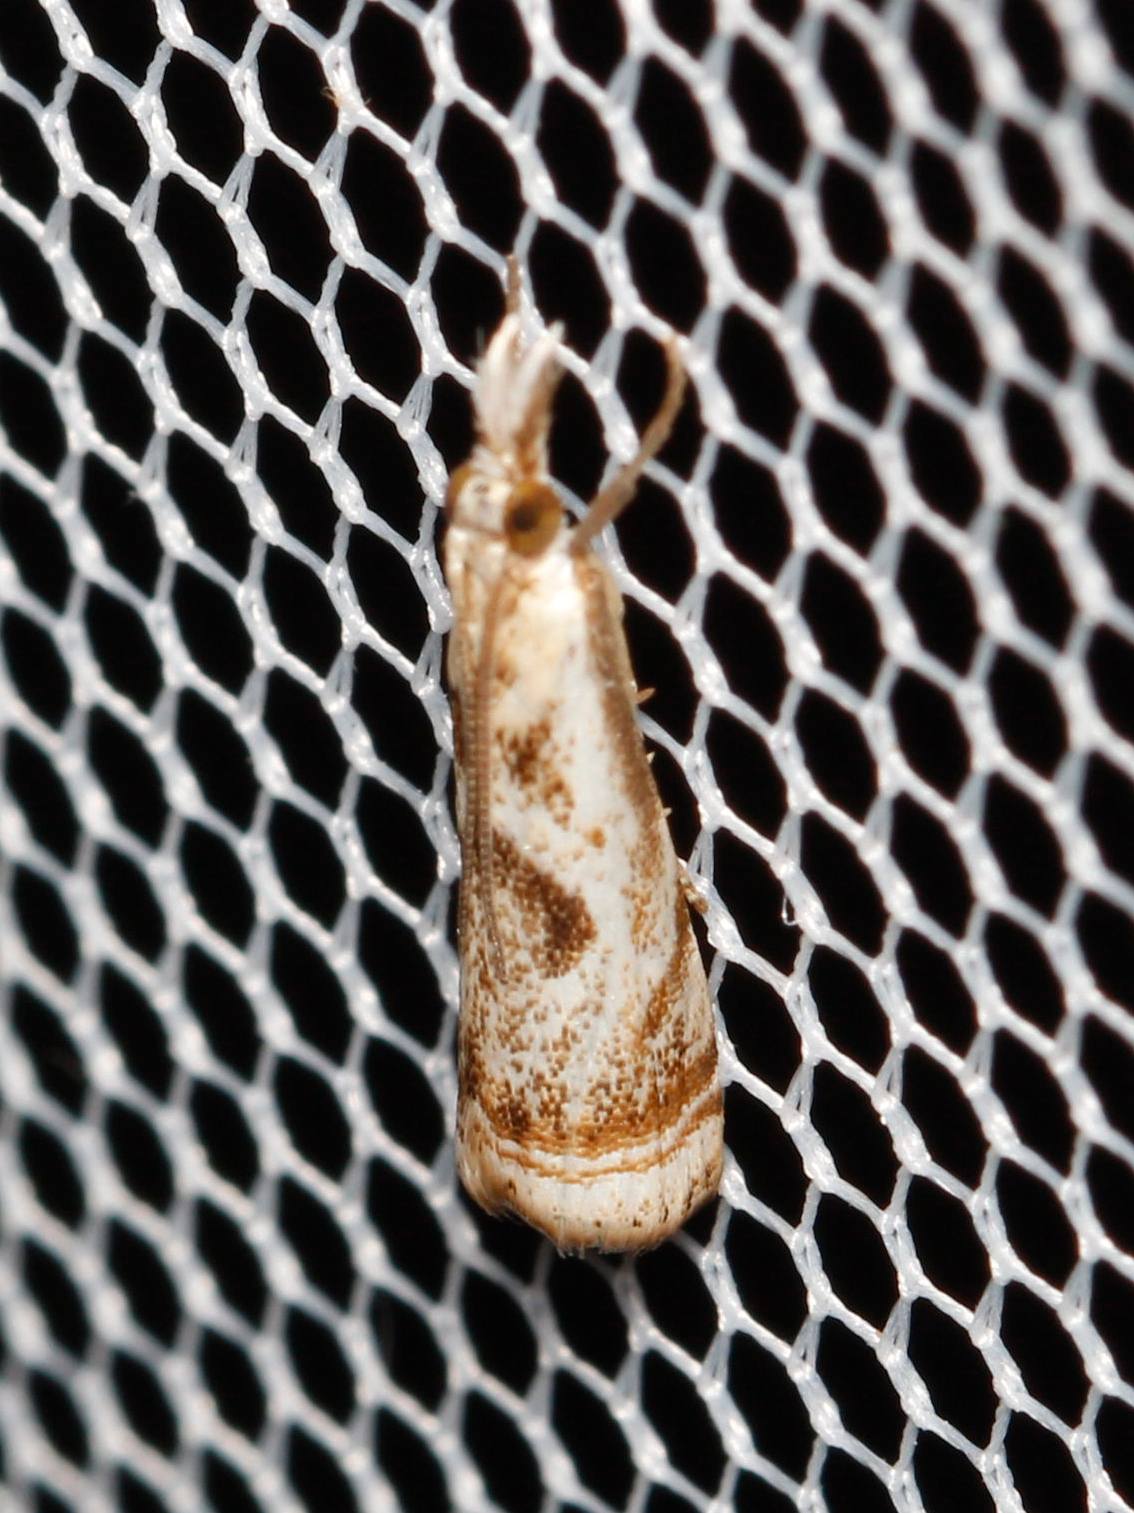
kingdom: Animalia
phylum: Arthropoda
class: Insecta
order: Lepidoptera
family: Crambidae
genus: Microcrambus
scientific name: Microcrambus elegans
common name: Elegant grass-veneer
